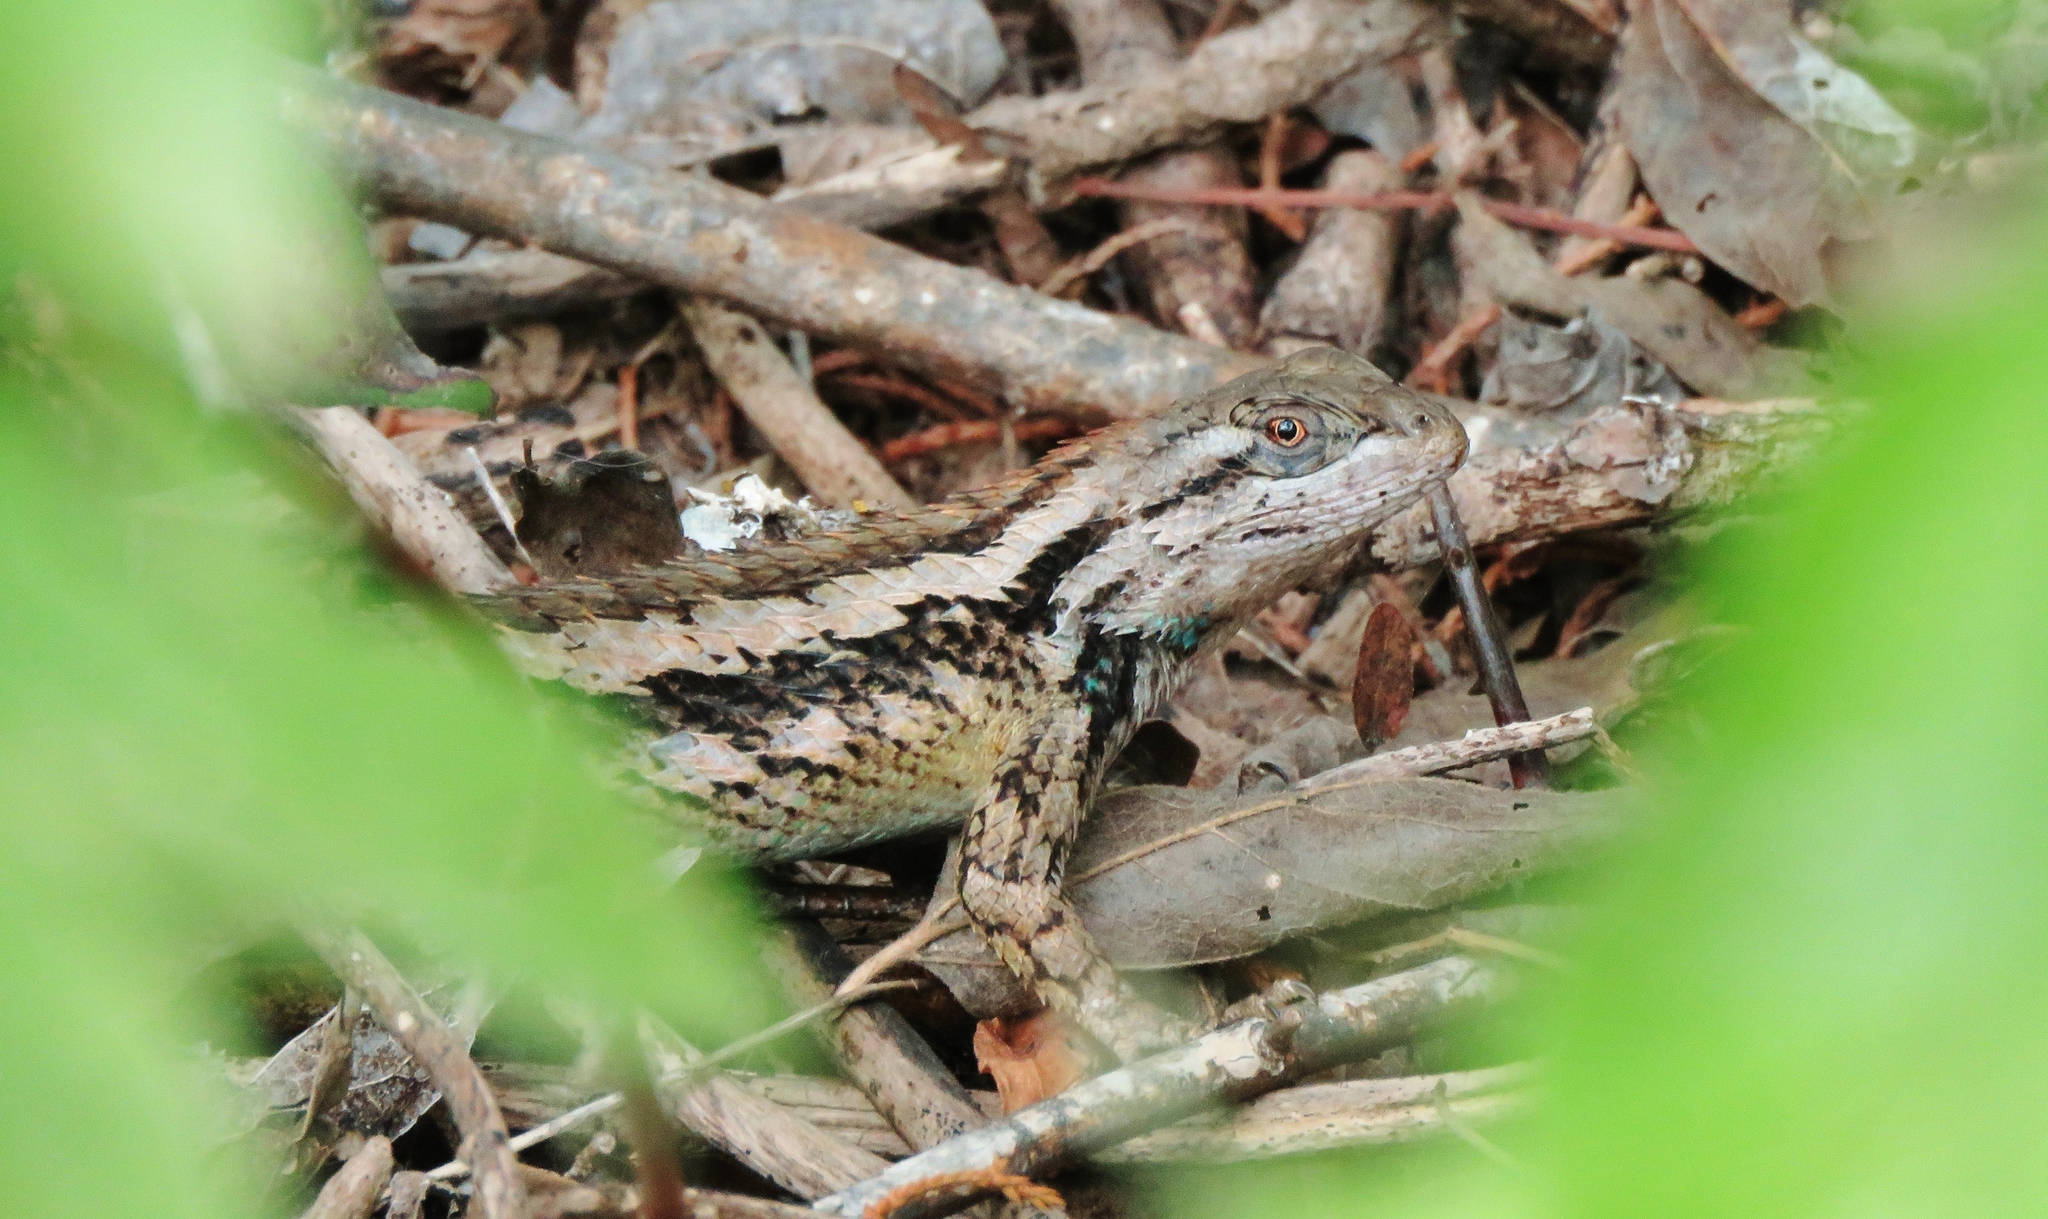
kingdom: Animalia
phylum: Chordata
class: Squamata
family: Phrynosomatidae
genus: Sceloporus
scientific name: Sceloporus olivaceus
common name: Texas spiny lizard
